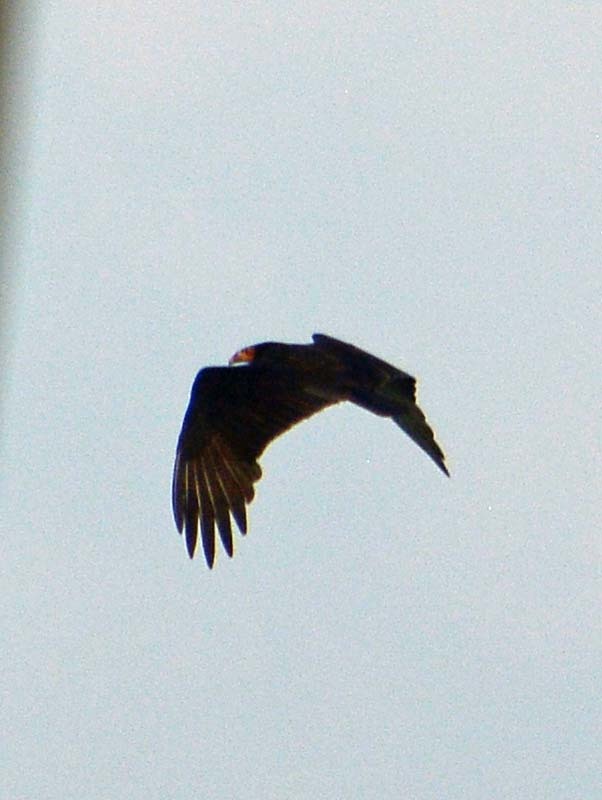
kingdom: Animalia
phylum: Chordata
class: Aves
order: Accipitriformes
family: Cathartidae
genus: Cathartes
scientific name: Cathartes burrovianus
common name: Lesser yellow-headed vulture
